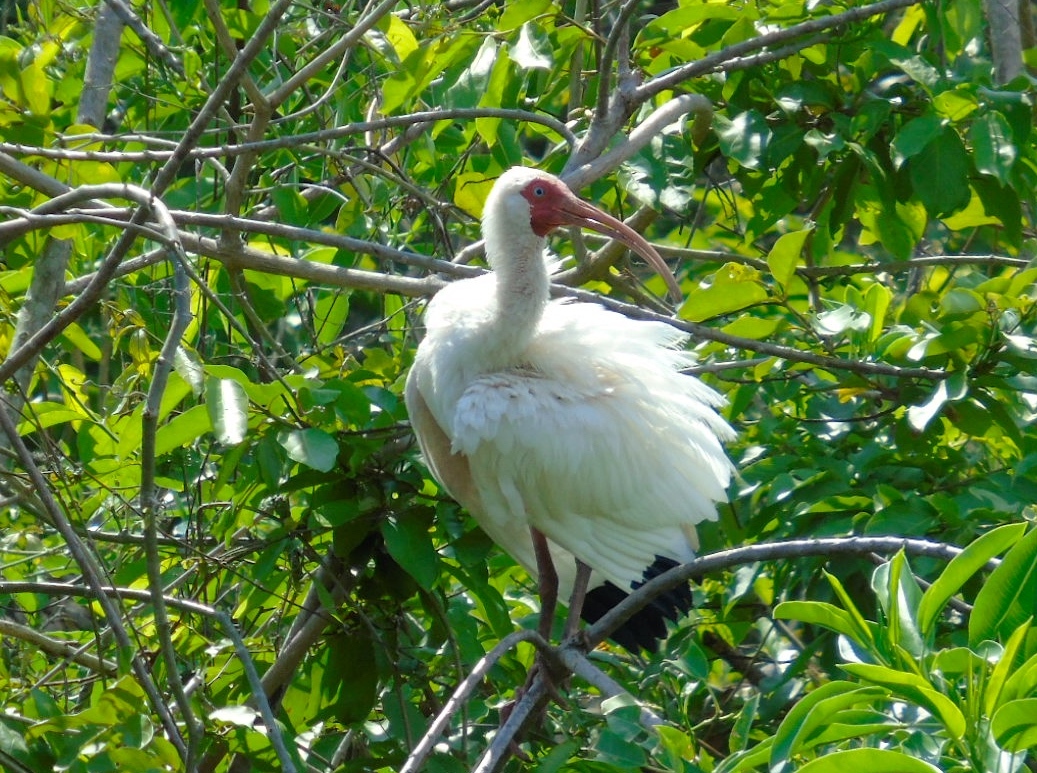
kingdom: Animalia
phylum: Chordata
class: Aves
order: Pelecaniformes
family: Threskiornithidae
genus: Eudocimus
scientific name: Eudocimus albus
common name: White ibis
